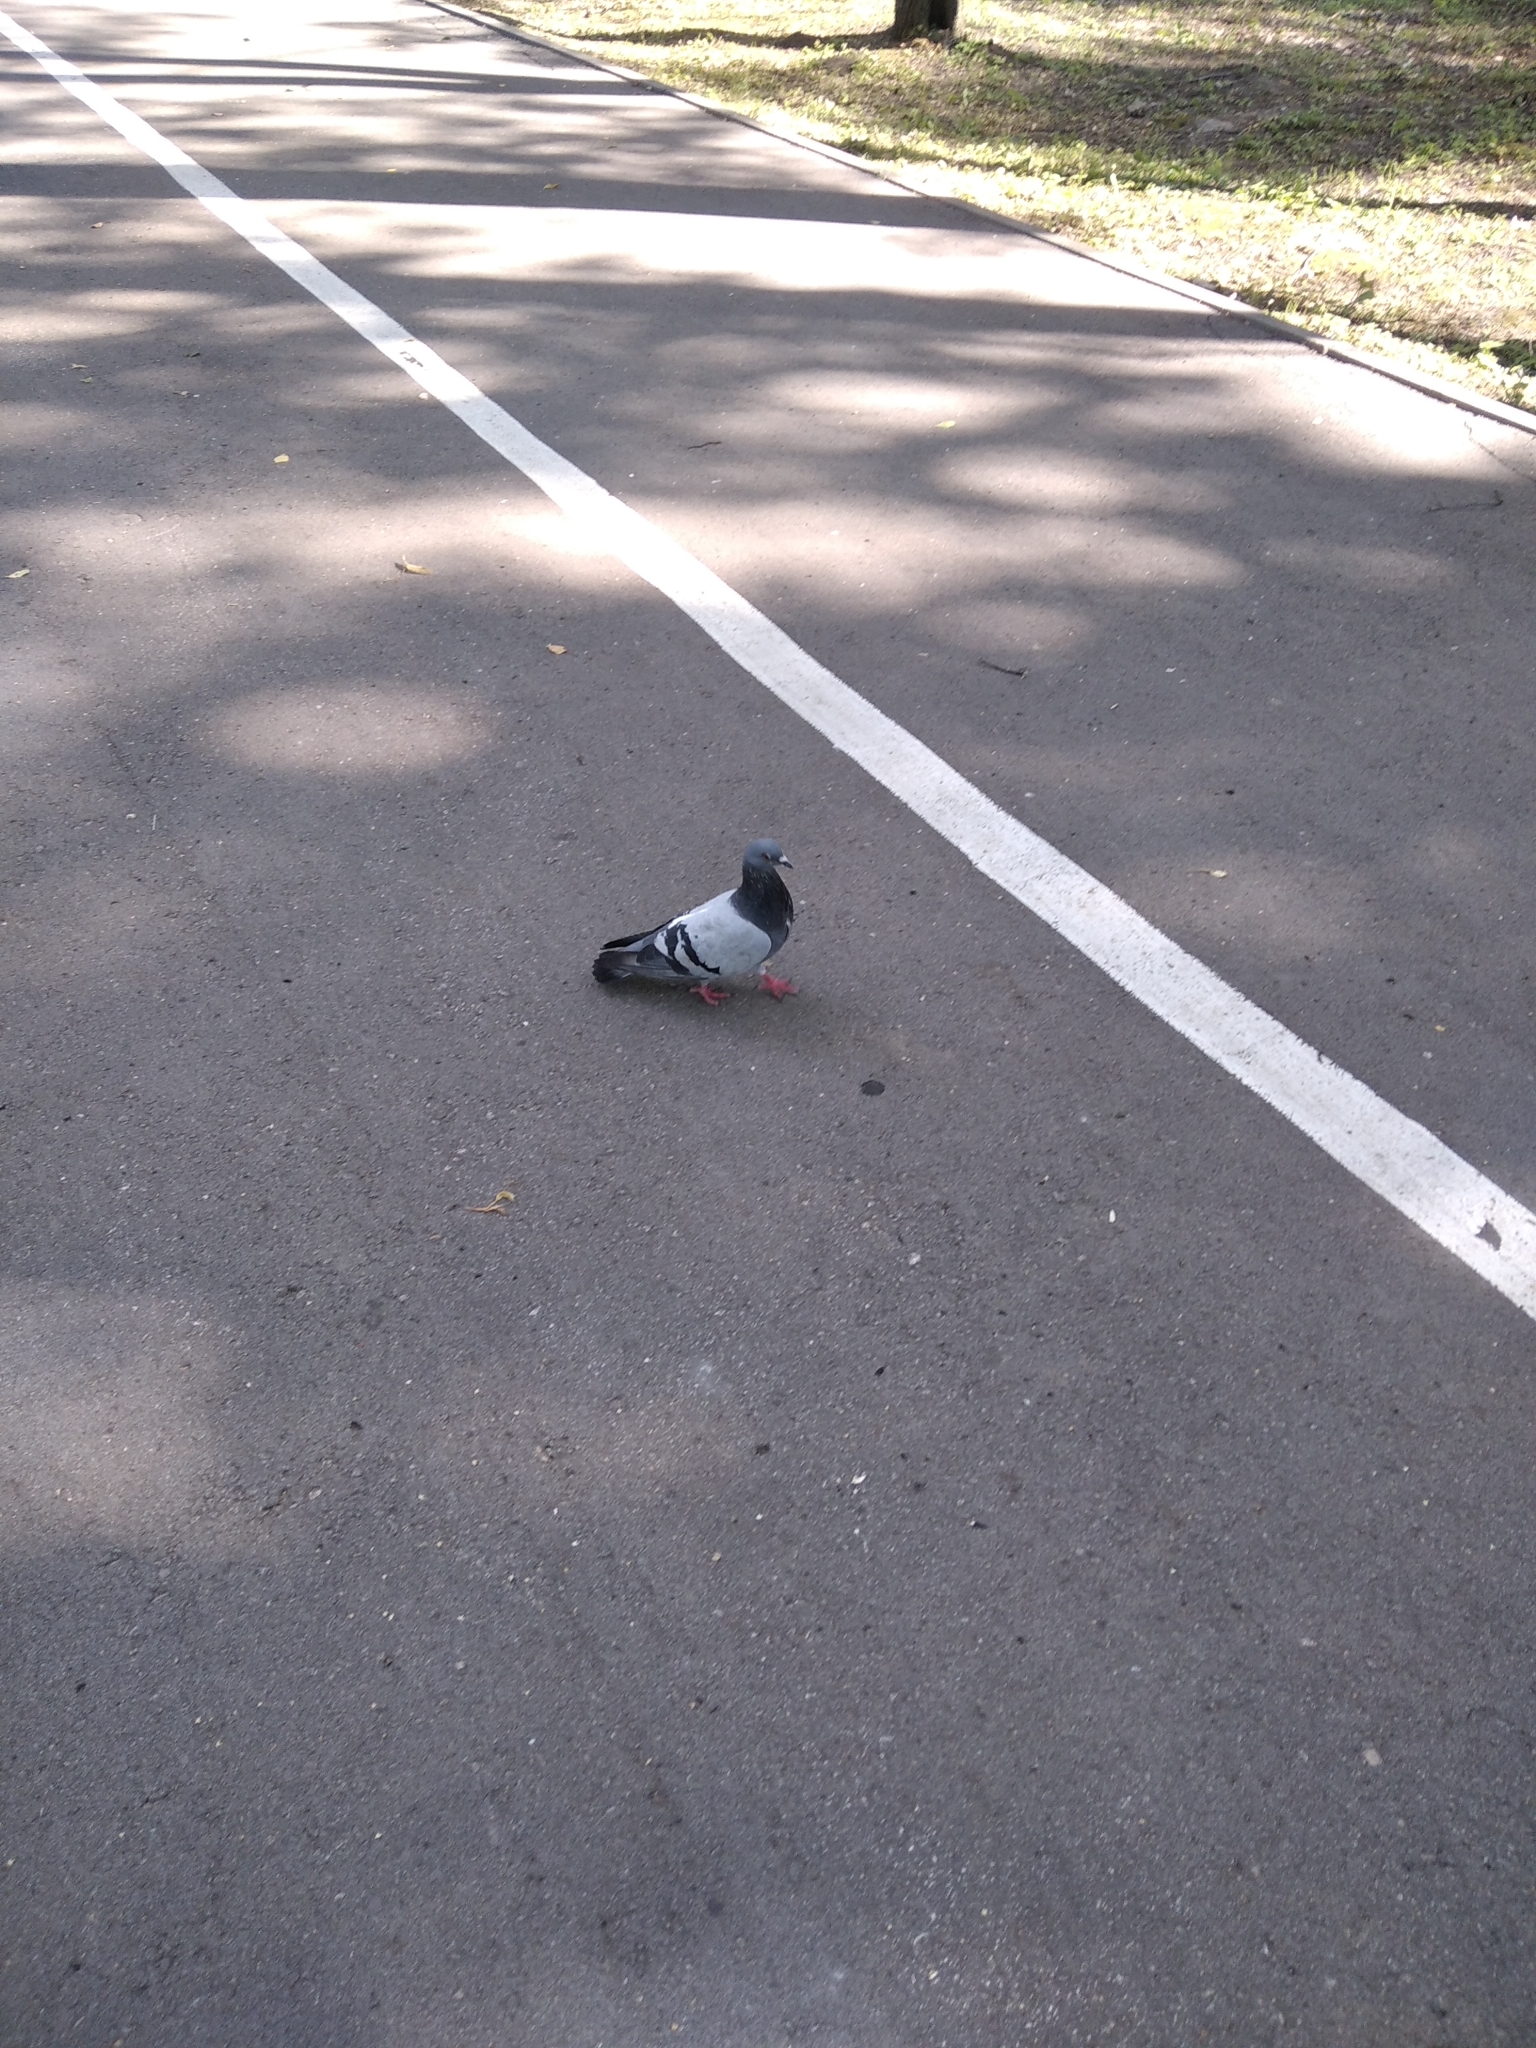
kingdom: Animalia
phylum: Chordata
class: Aves
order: Columbiformes
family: Columbidae
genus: Columba
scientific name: Columba livia
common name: Rock pigeon
